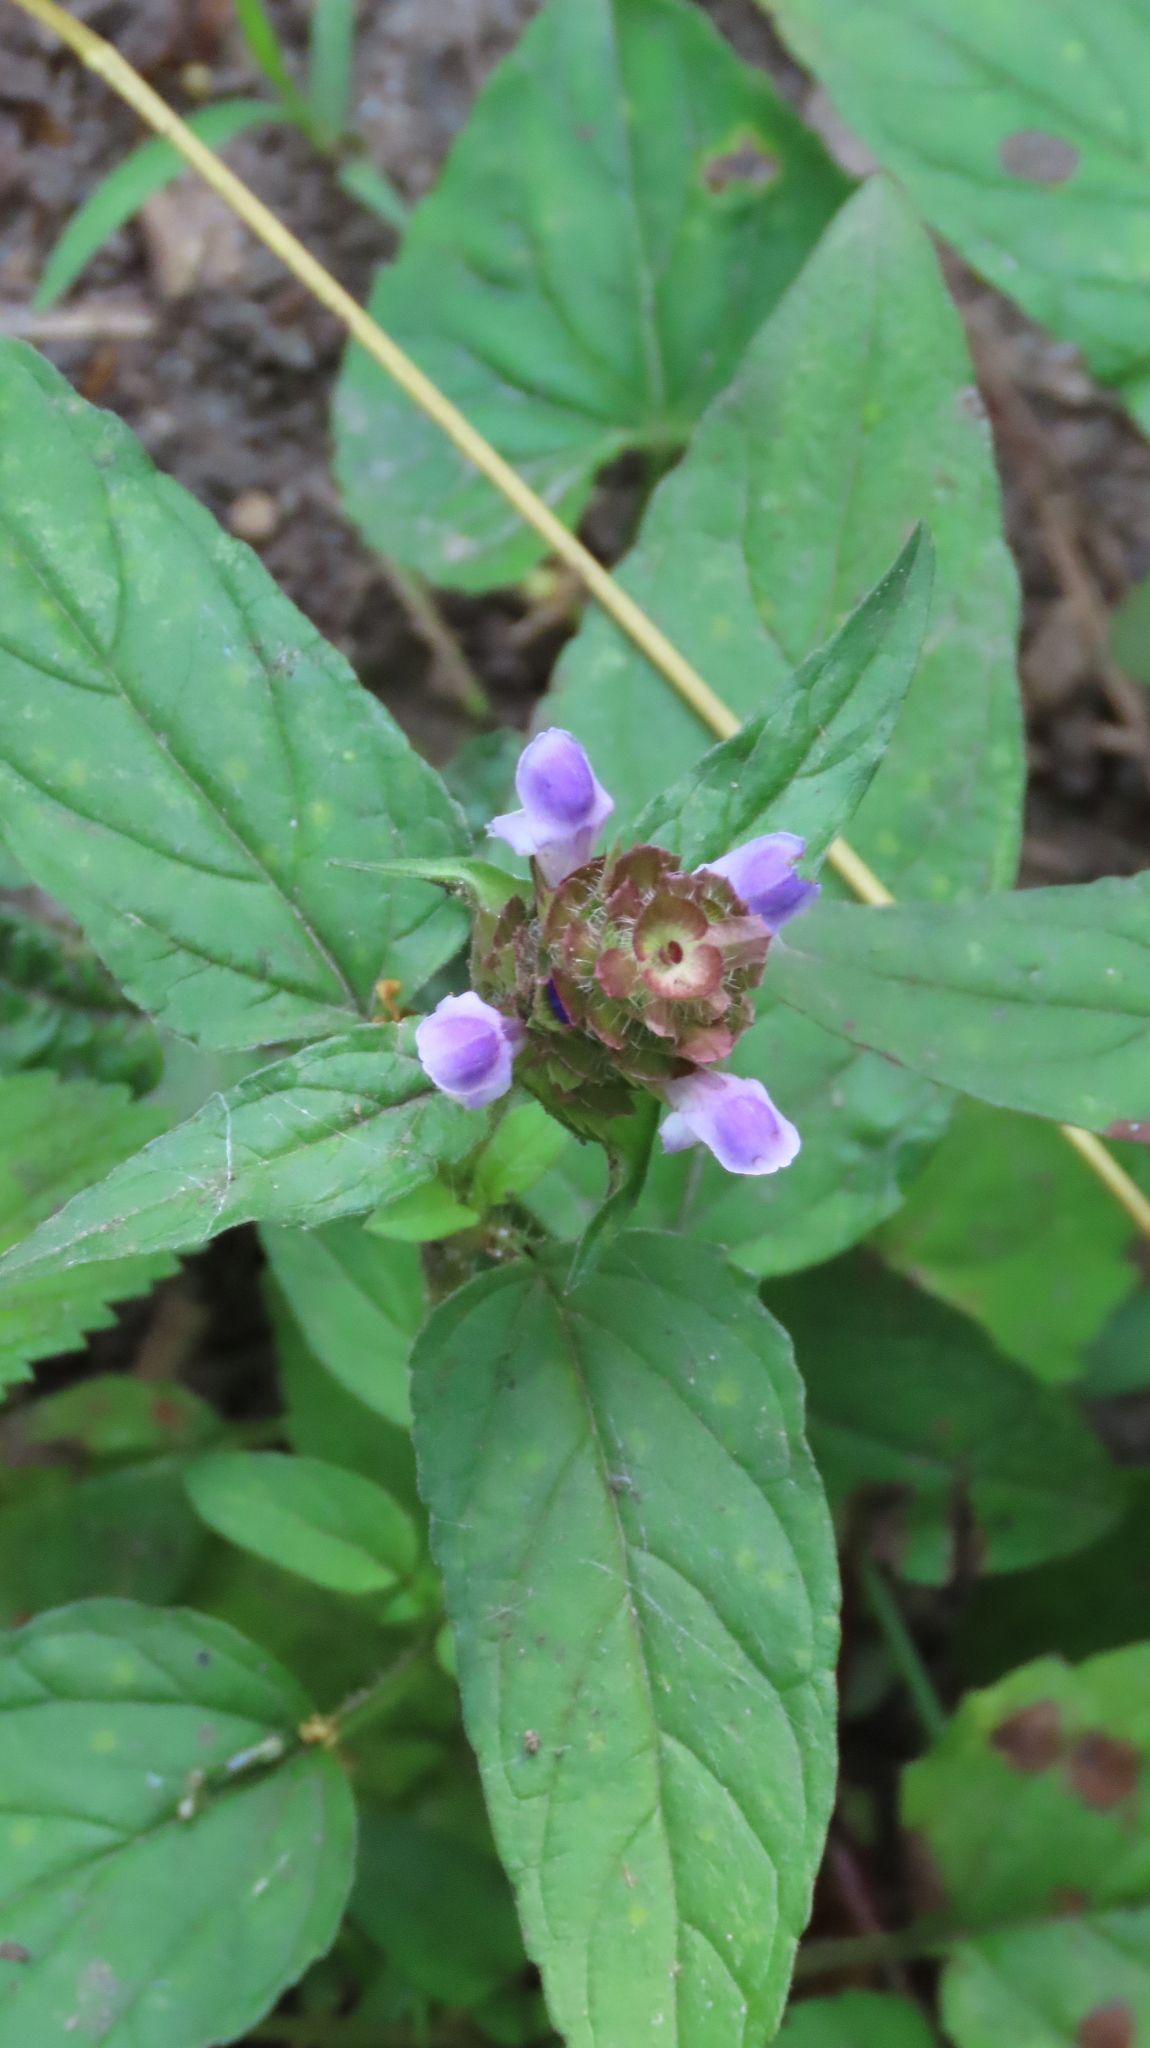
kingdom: Plantae
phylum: Tracheophyta
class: Magnoliopsida
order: Lamiales
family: Lamiaceae
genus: Prunella
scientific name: Prunella vulgaris
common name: Heal-all
